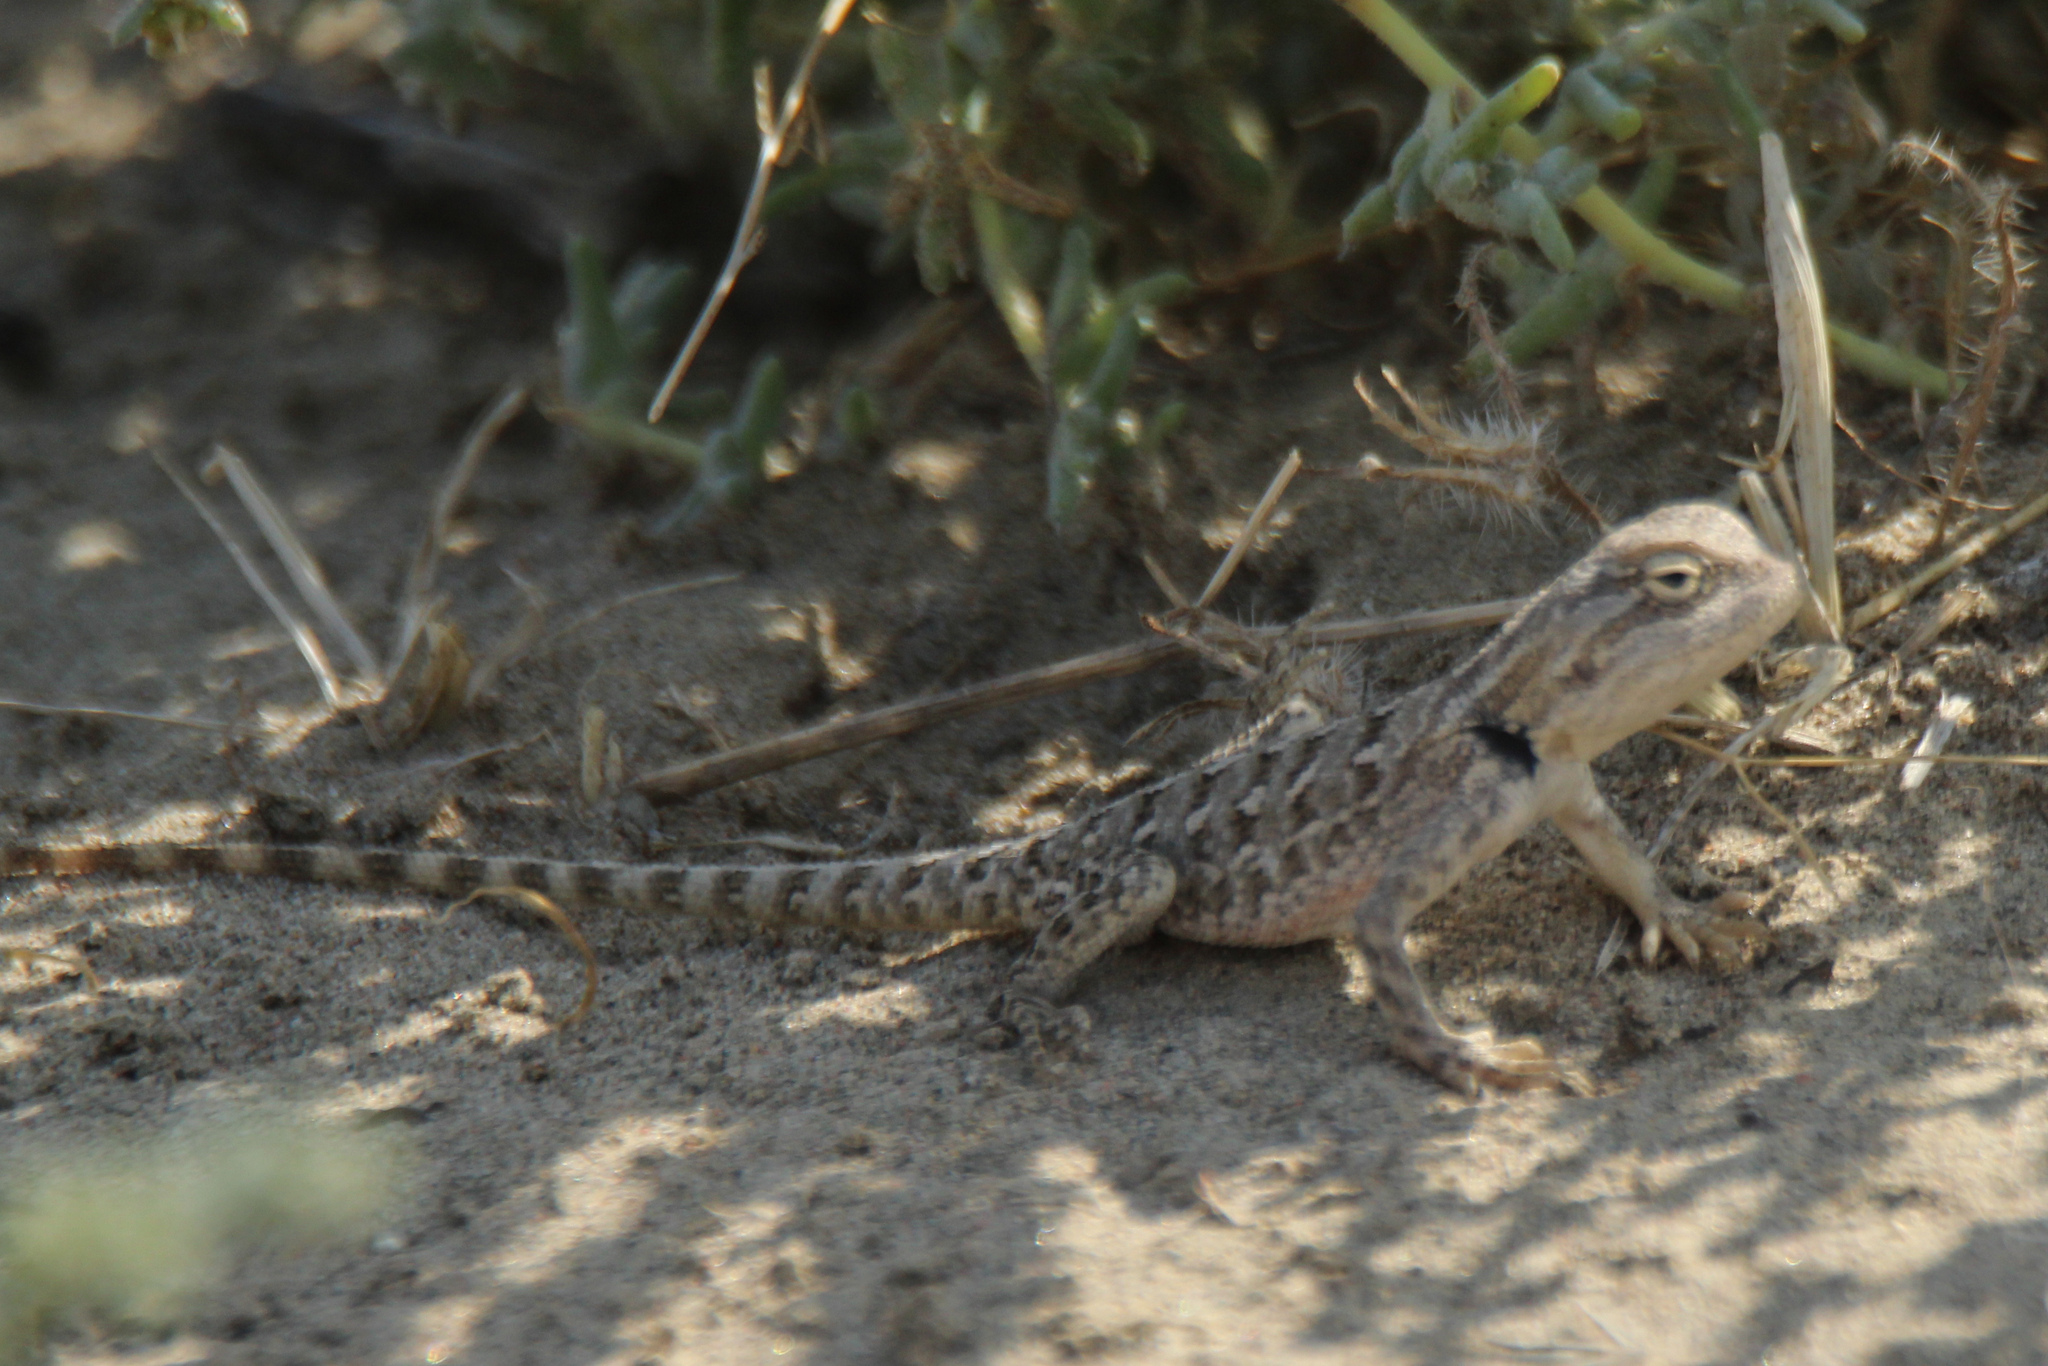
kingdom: Animalia
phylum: Chordata
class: Squamata
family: Agamidae
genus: Trapelus
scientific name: Trapelus sanguinolentus
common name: Steppe agama
